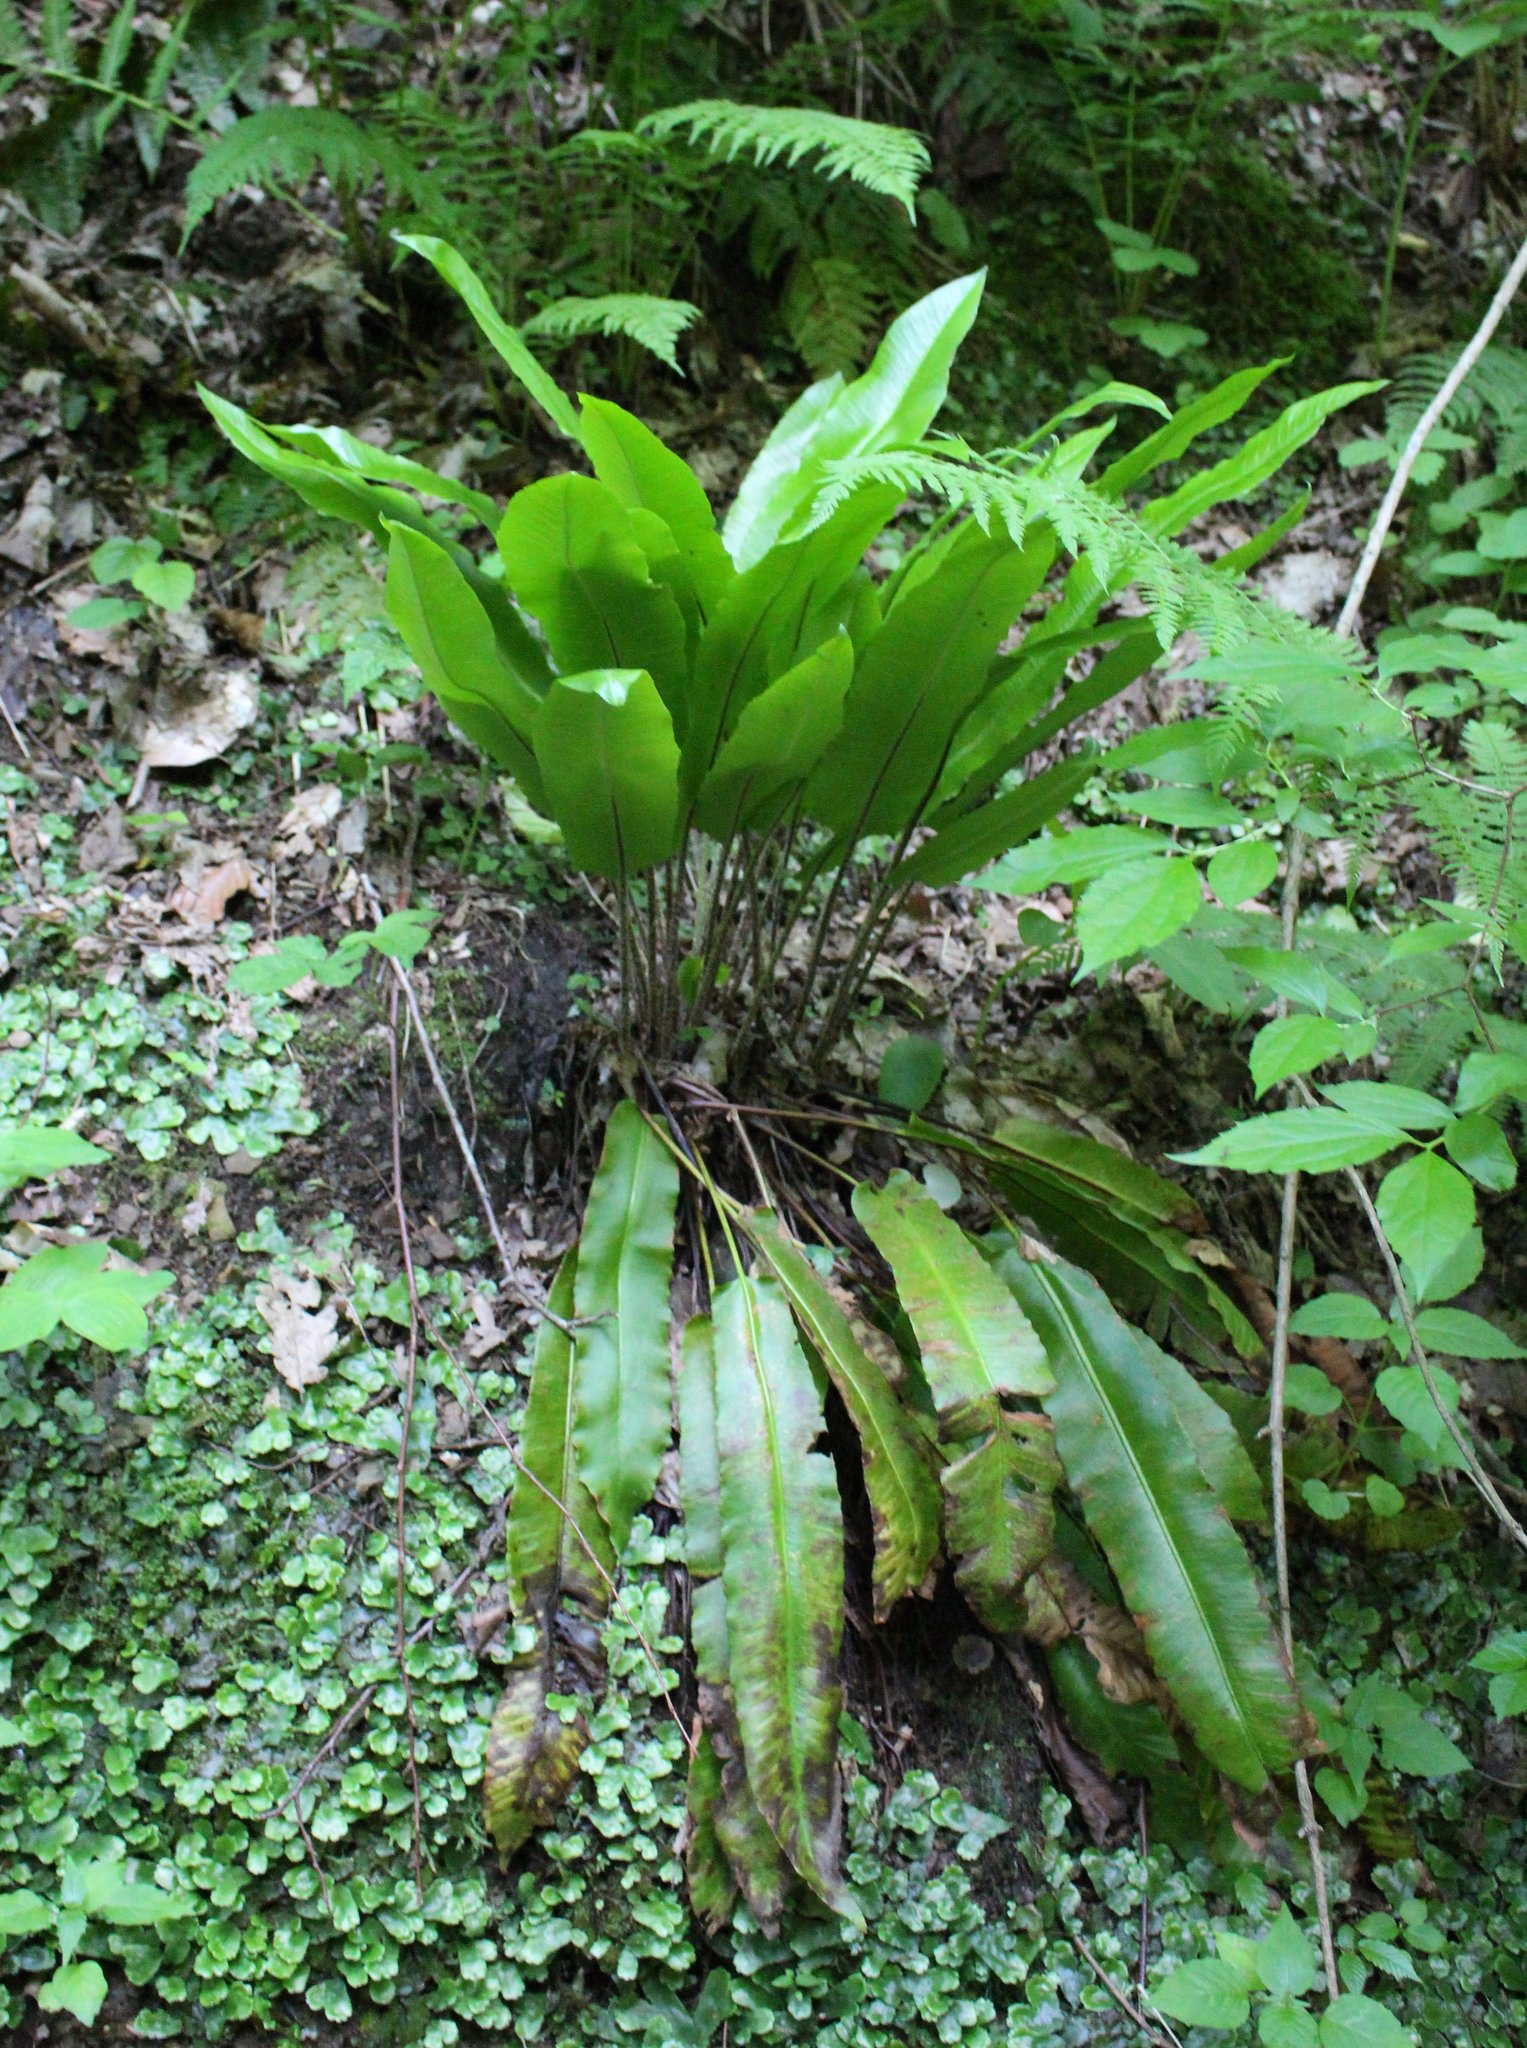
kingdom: Plantae
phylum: Tracheophyta
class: Polypodiopsida
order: Polypodiales
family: Aspleniaceae
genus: Asplenium
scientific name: Asplenium scolopendrium
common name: Hart's-tongue fern
